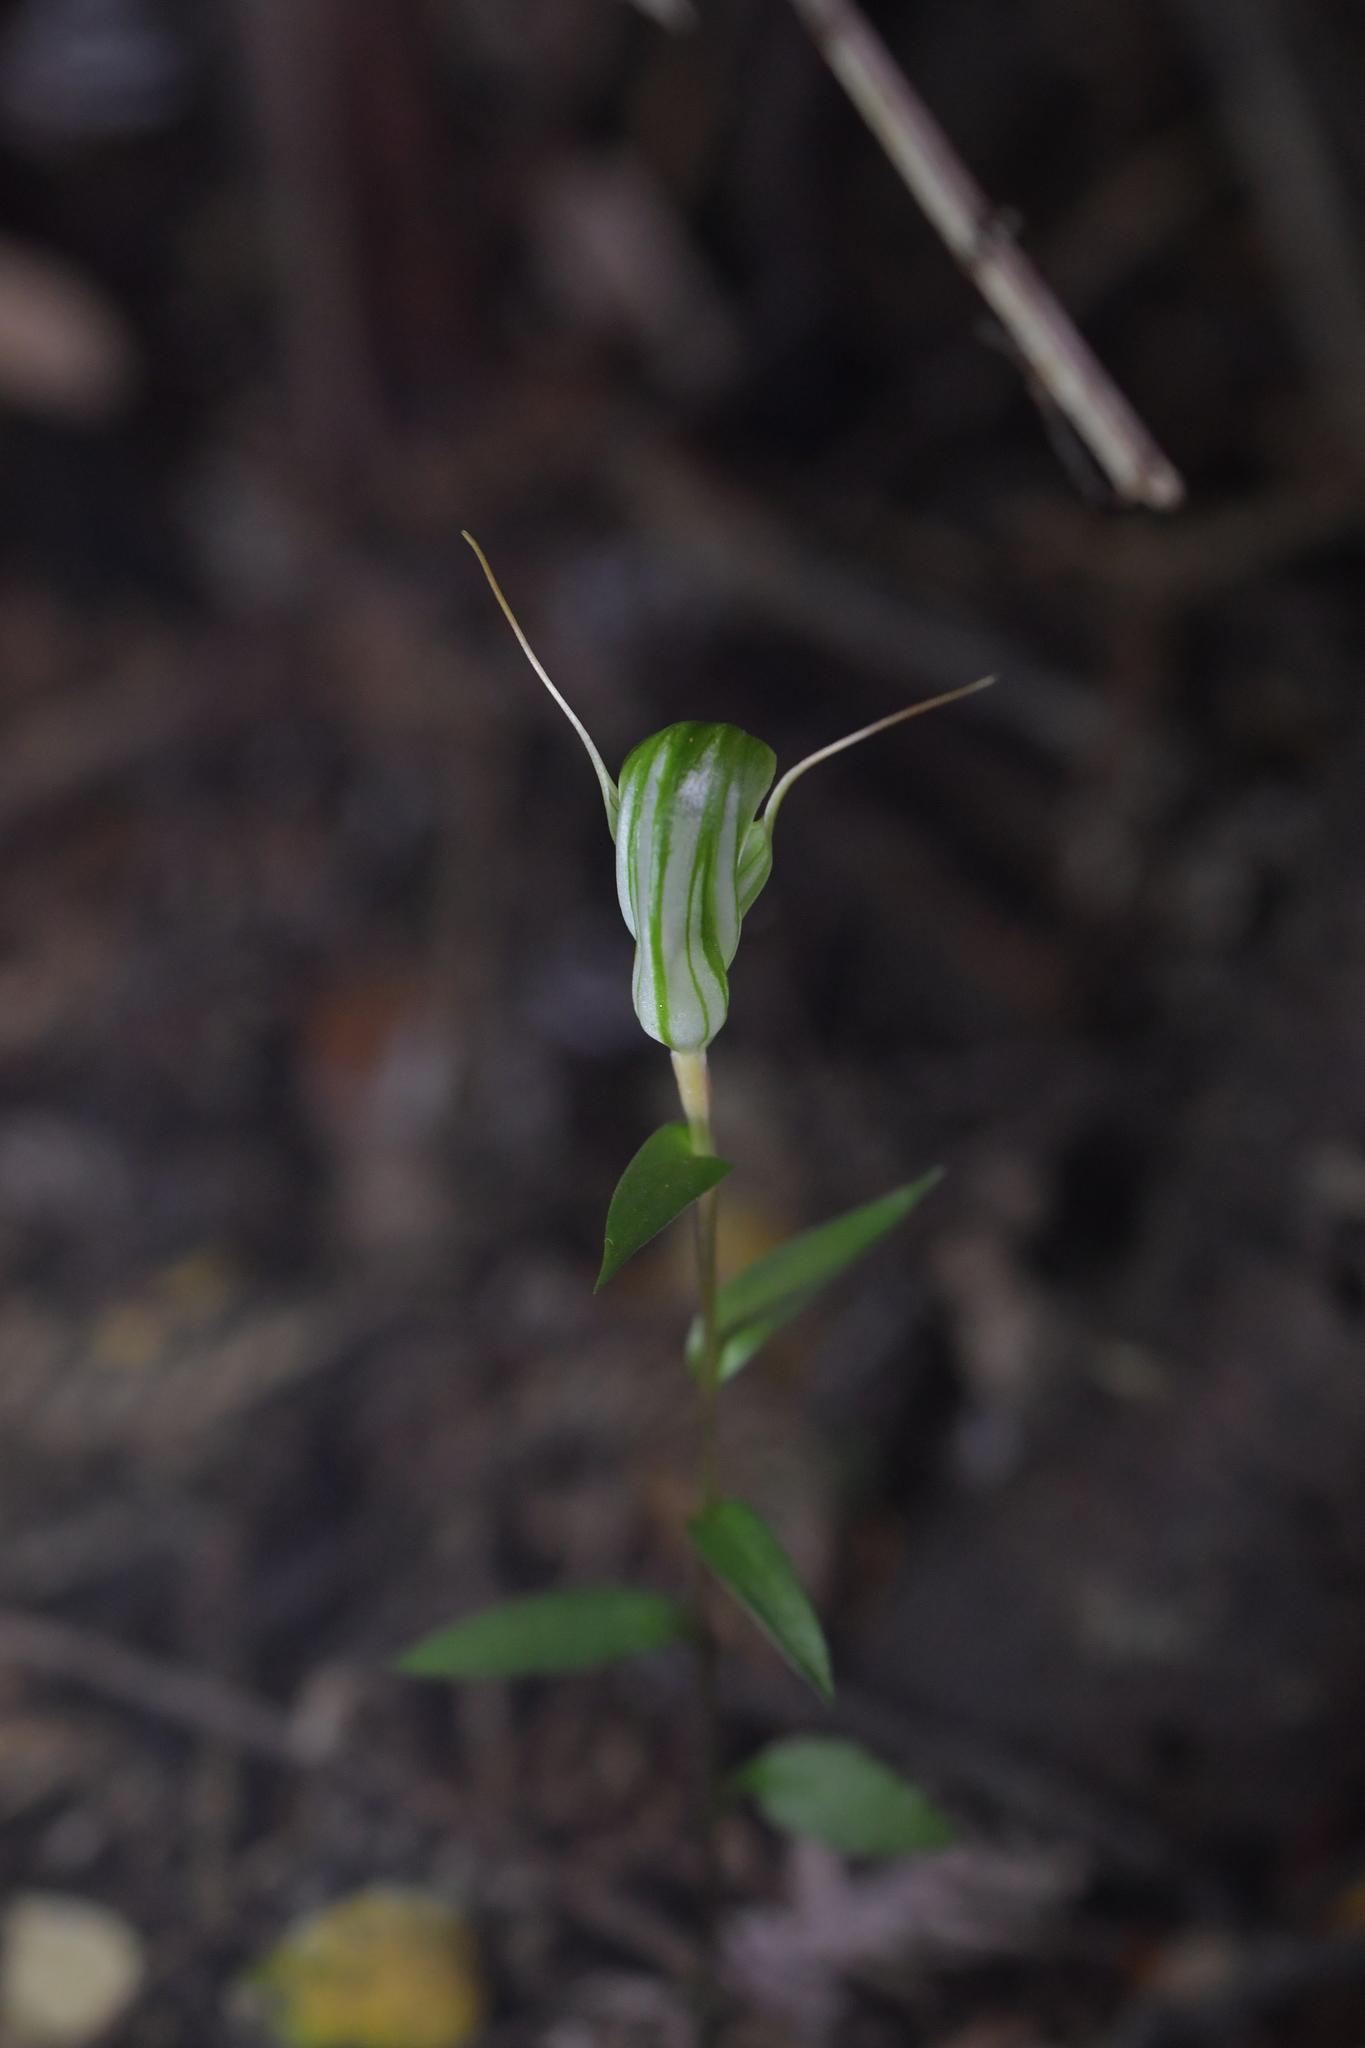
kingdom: Plantae
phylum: Tracheophyta
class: Liliopsida
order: Asparagales
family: Orchidaceae
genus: Pterostylis
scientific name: Pterostylis alobula
